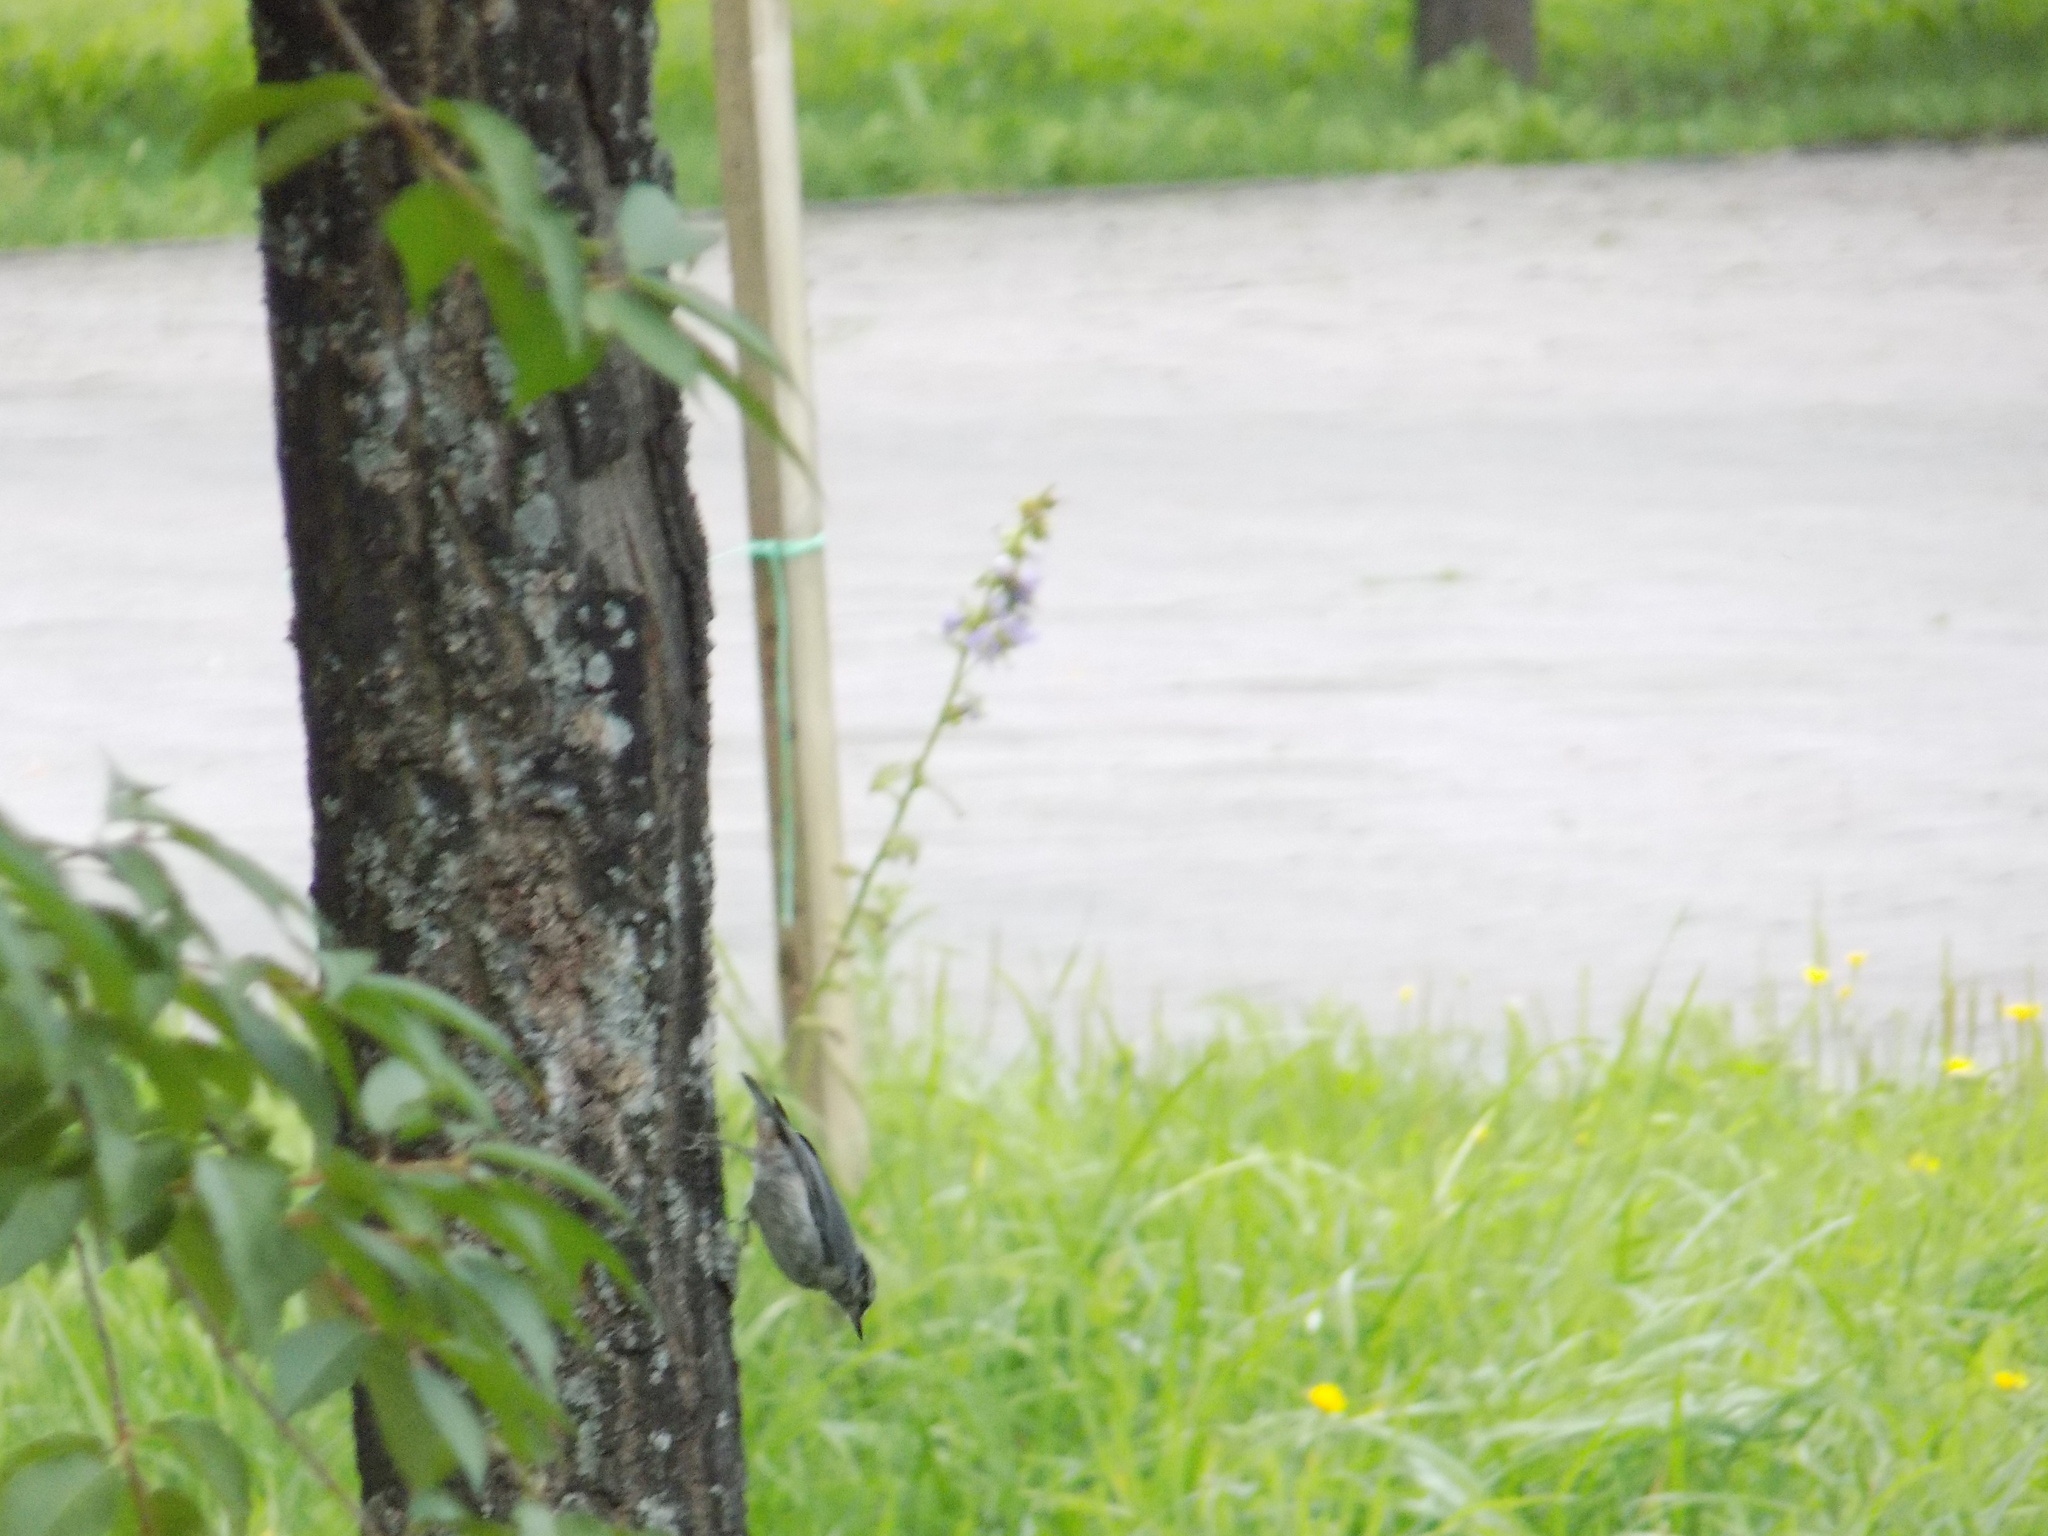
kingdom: Animalia
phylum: Chordata
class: Aves
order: Passeriformes
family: Sittidae
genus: Sitta
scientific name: Sitta europaea
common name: Eurasian nuthatch
